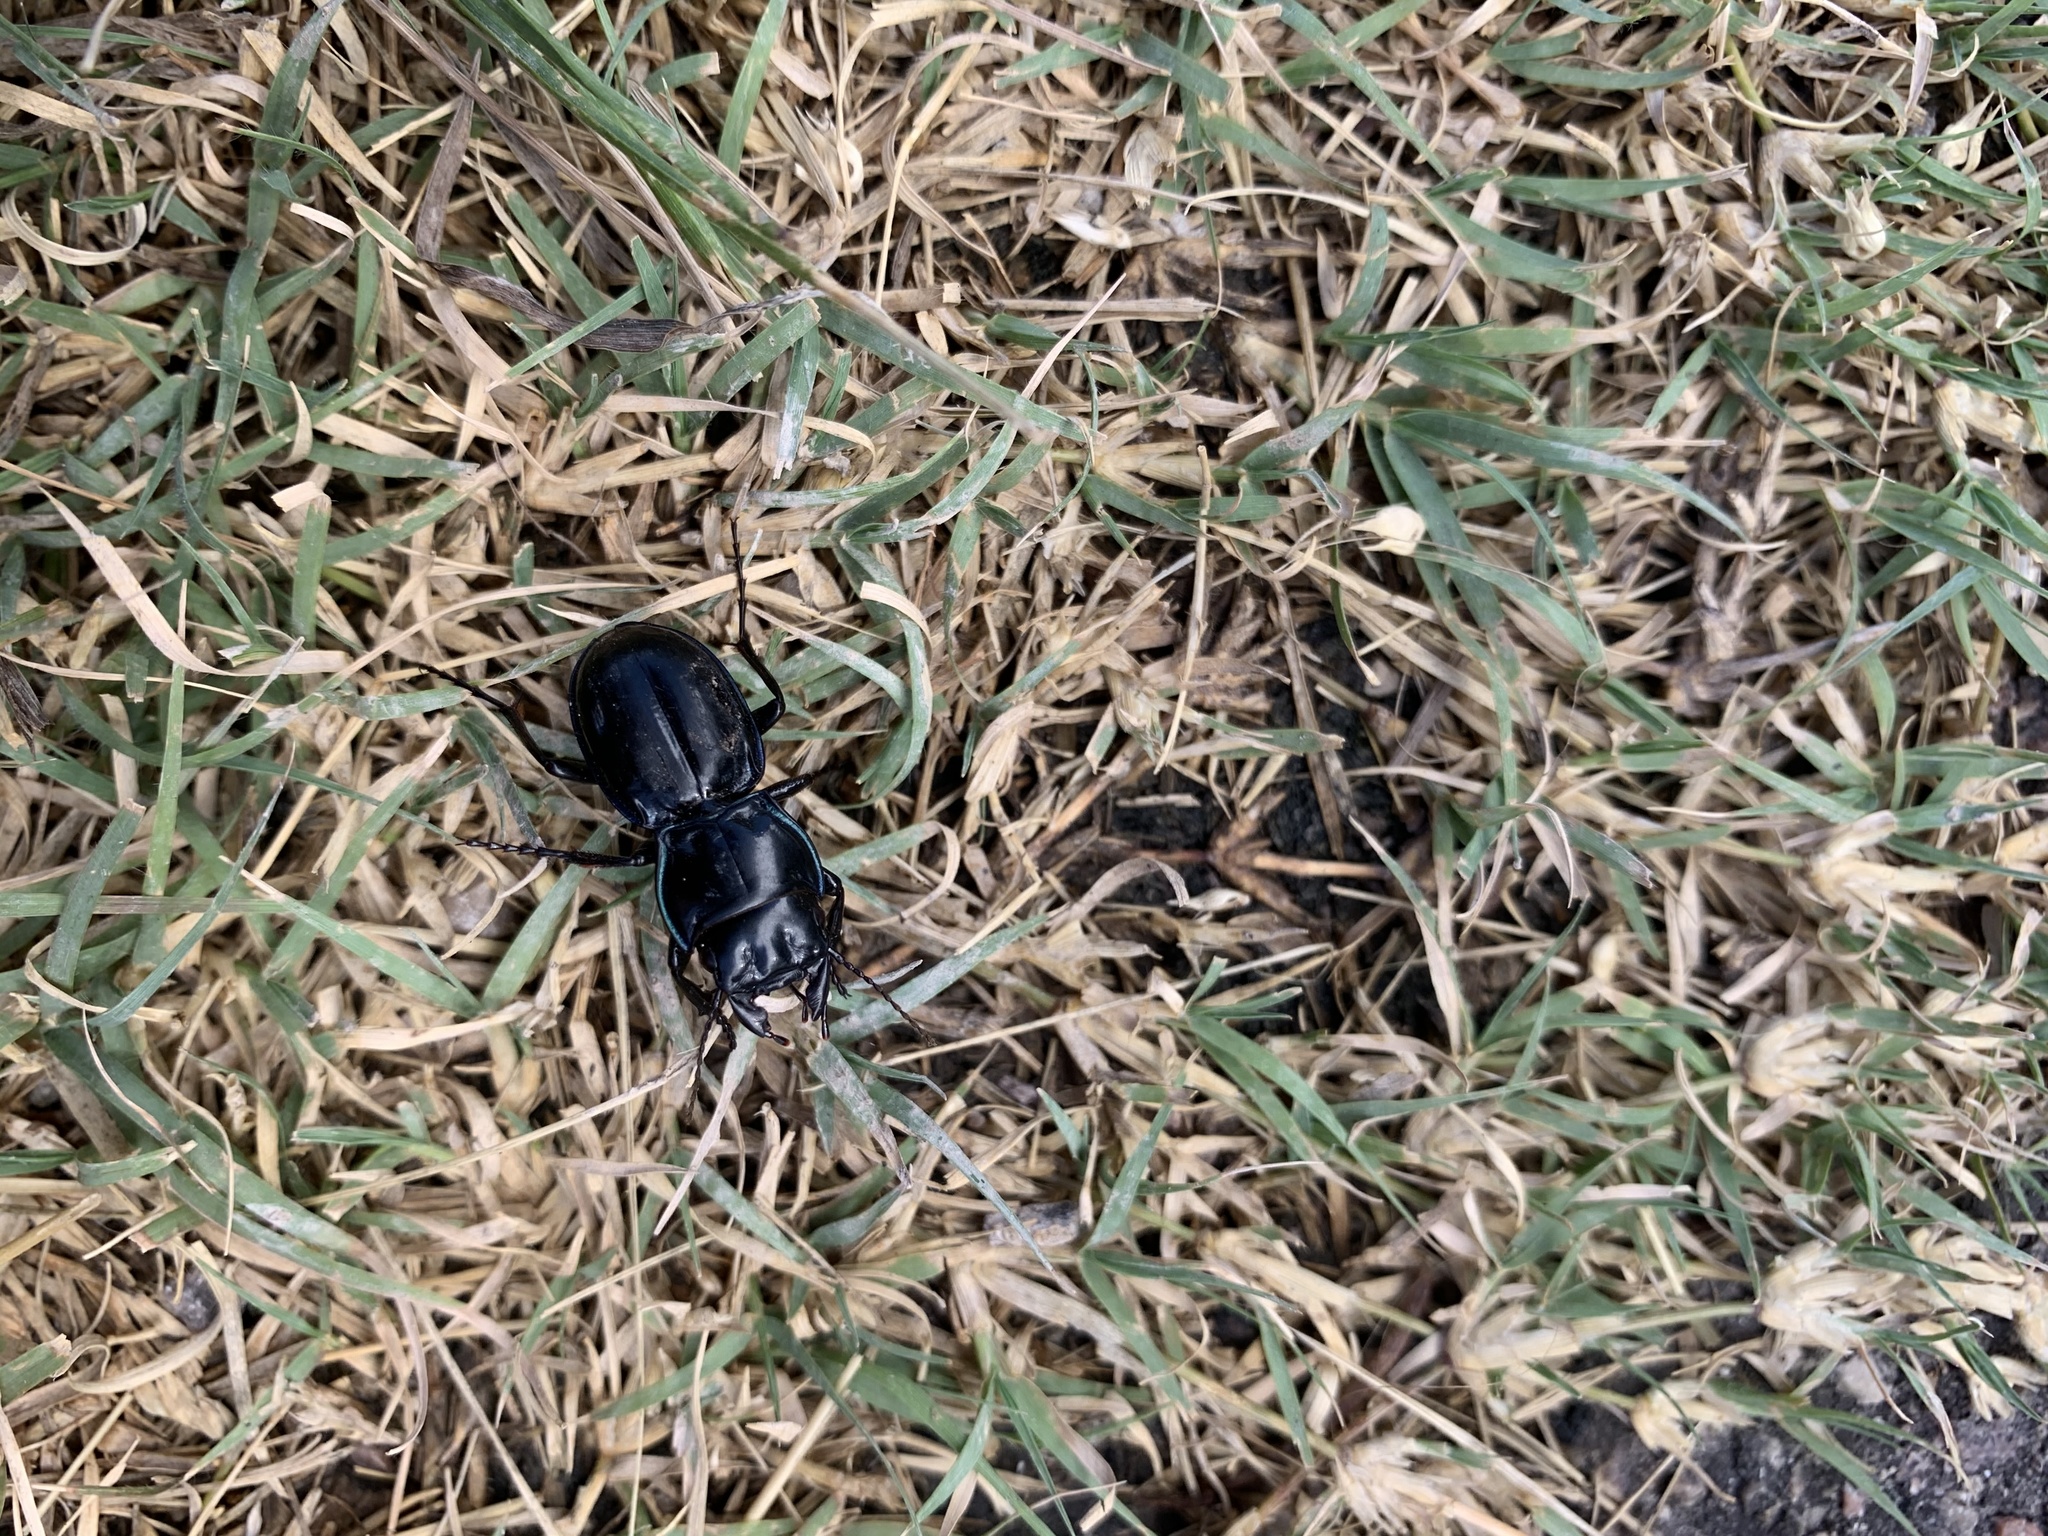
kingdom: Animalia
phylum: Arthropoda
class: Insecta
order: Coleoptera
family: Carabidae
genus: Pasimachus
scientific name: Pasimachus elongatus
